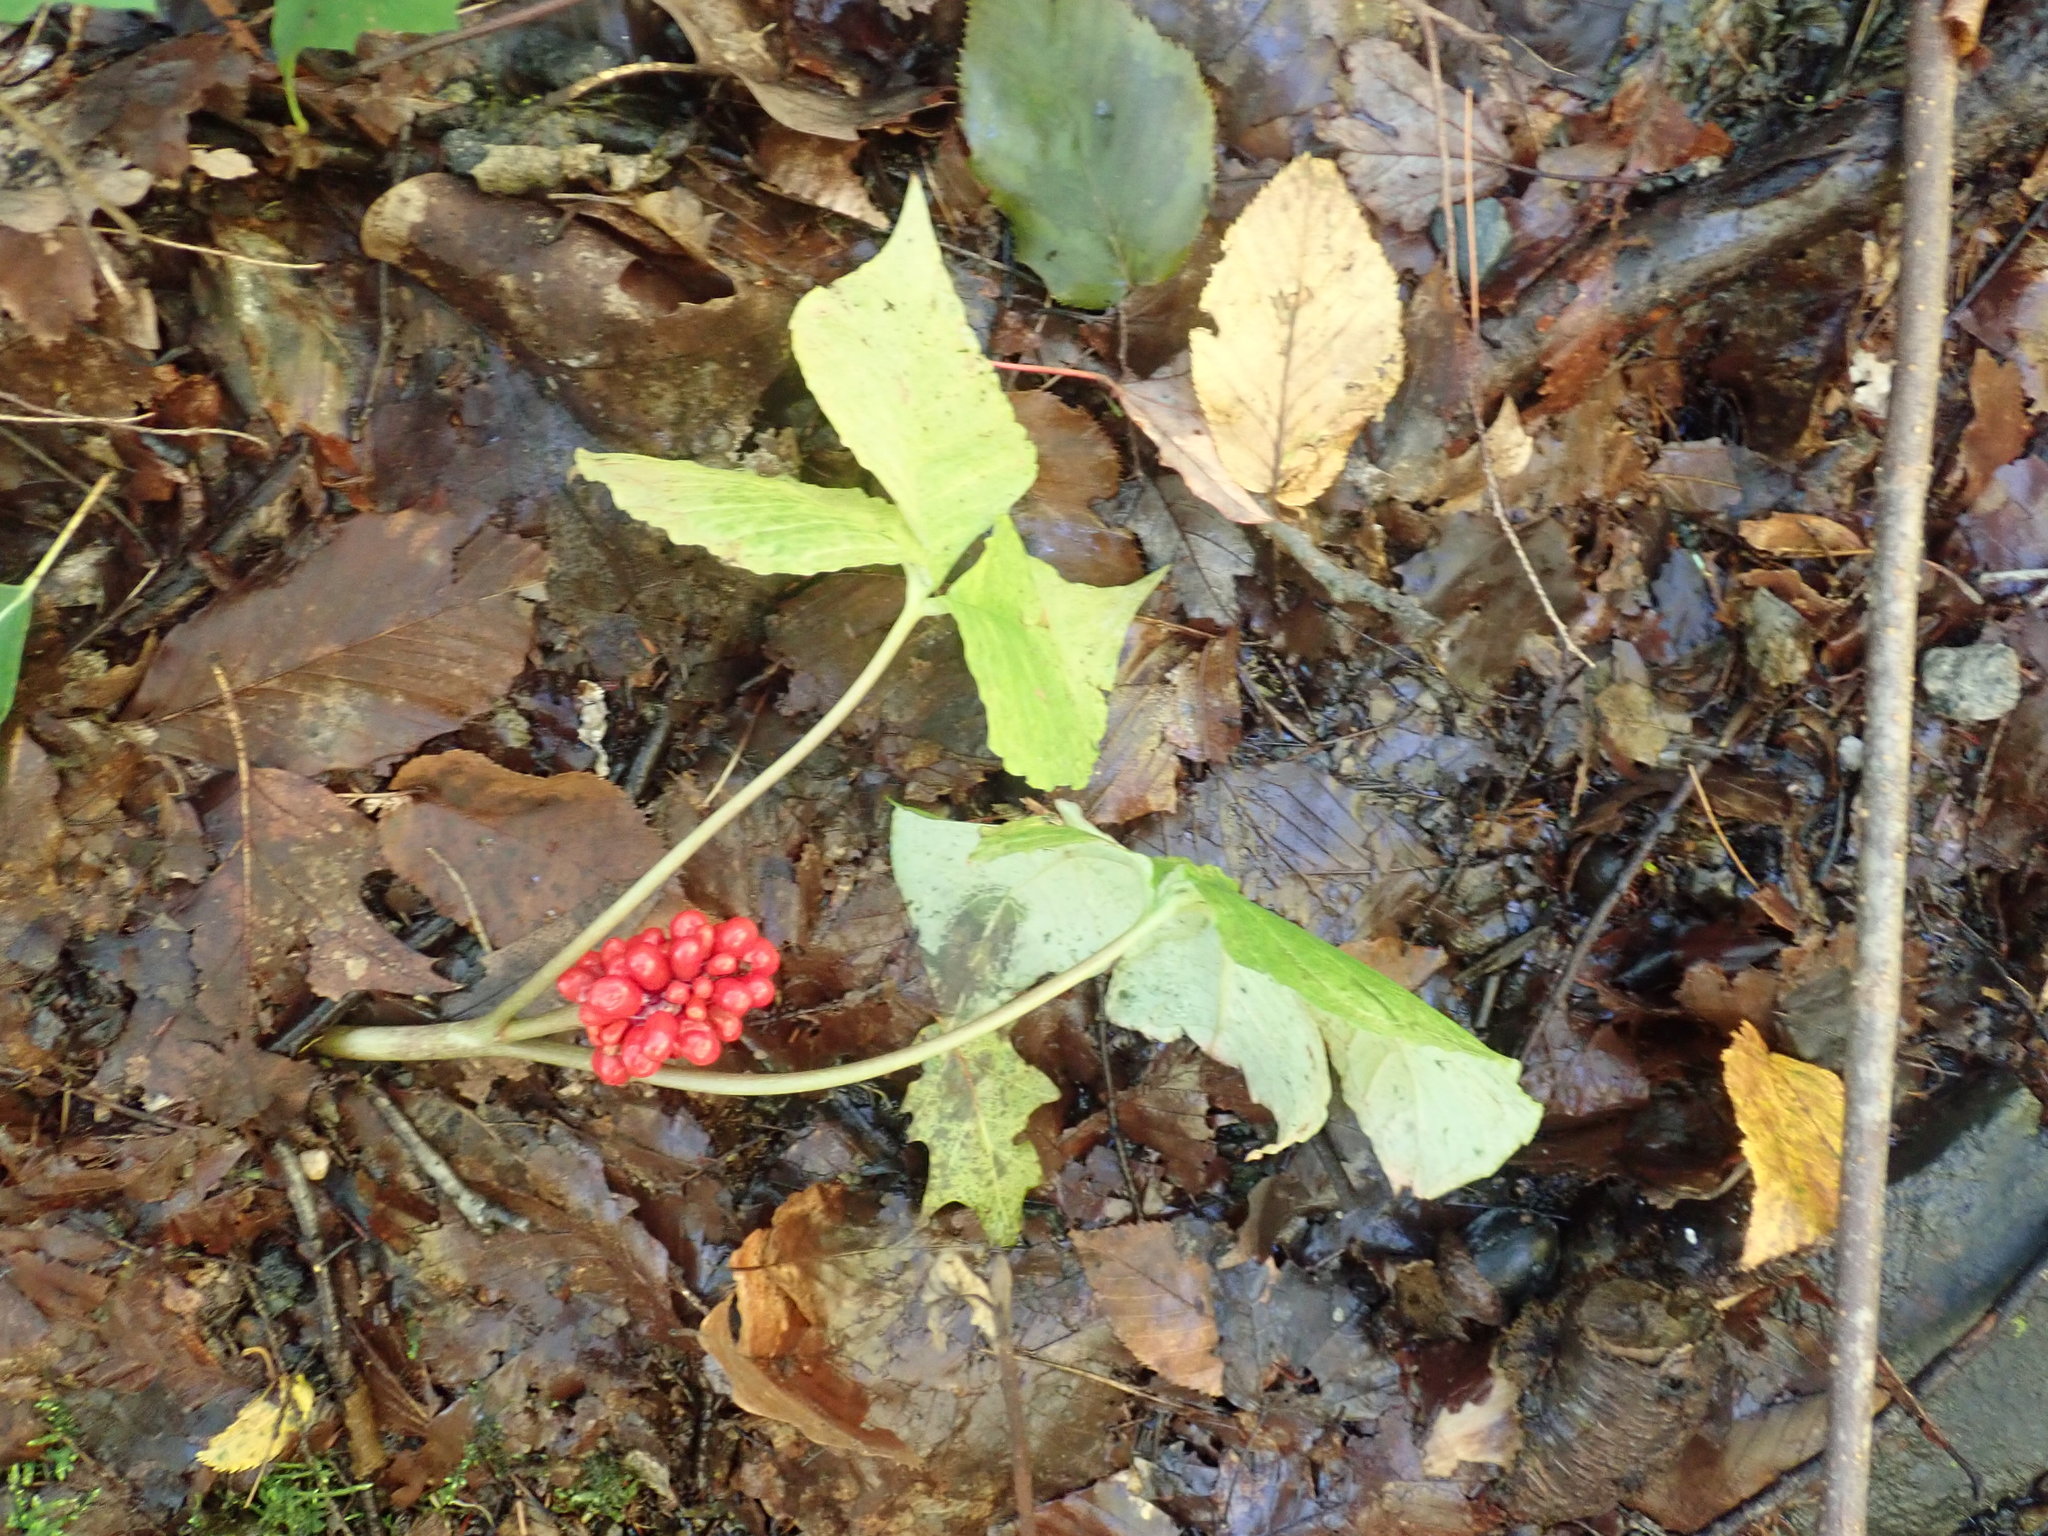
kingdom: Plantae
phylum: Tracheophyta
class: Liliopsida
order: Alismatales
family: Araceae
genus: Arisaema
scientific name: Arisaema triphyllum
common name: Jack-in-the-pulpit
